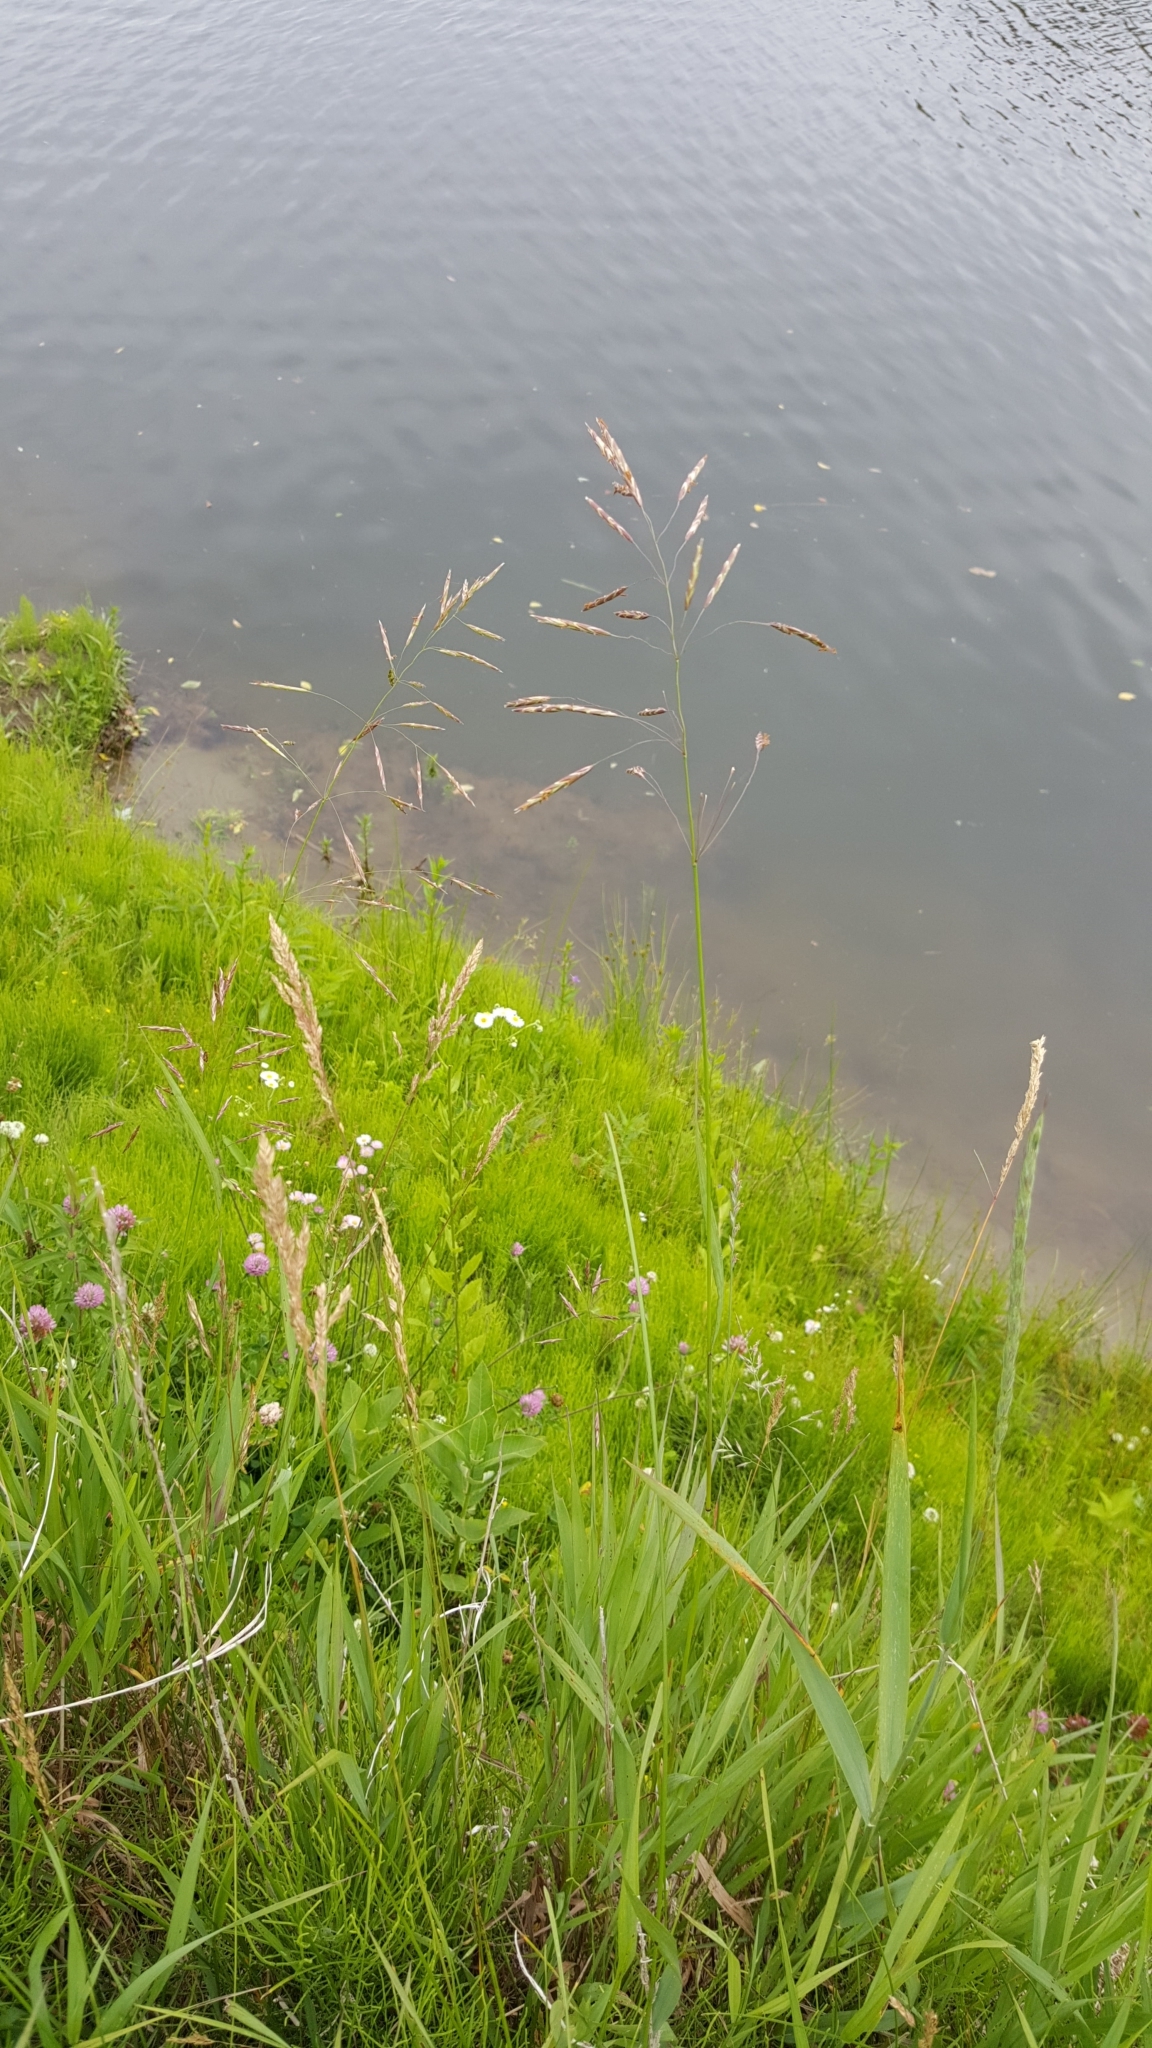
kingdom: Plantae
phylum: Tracheophyta
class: Liliopsida
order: Poales
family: Poaceae
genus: Bromus
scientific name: Bromus inermis
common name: Smooth brome
